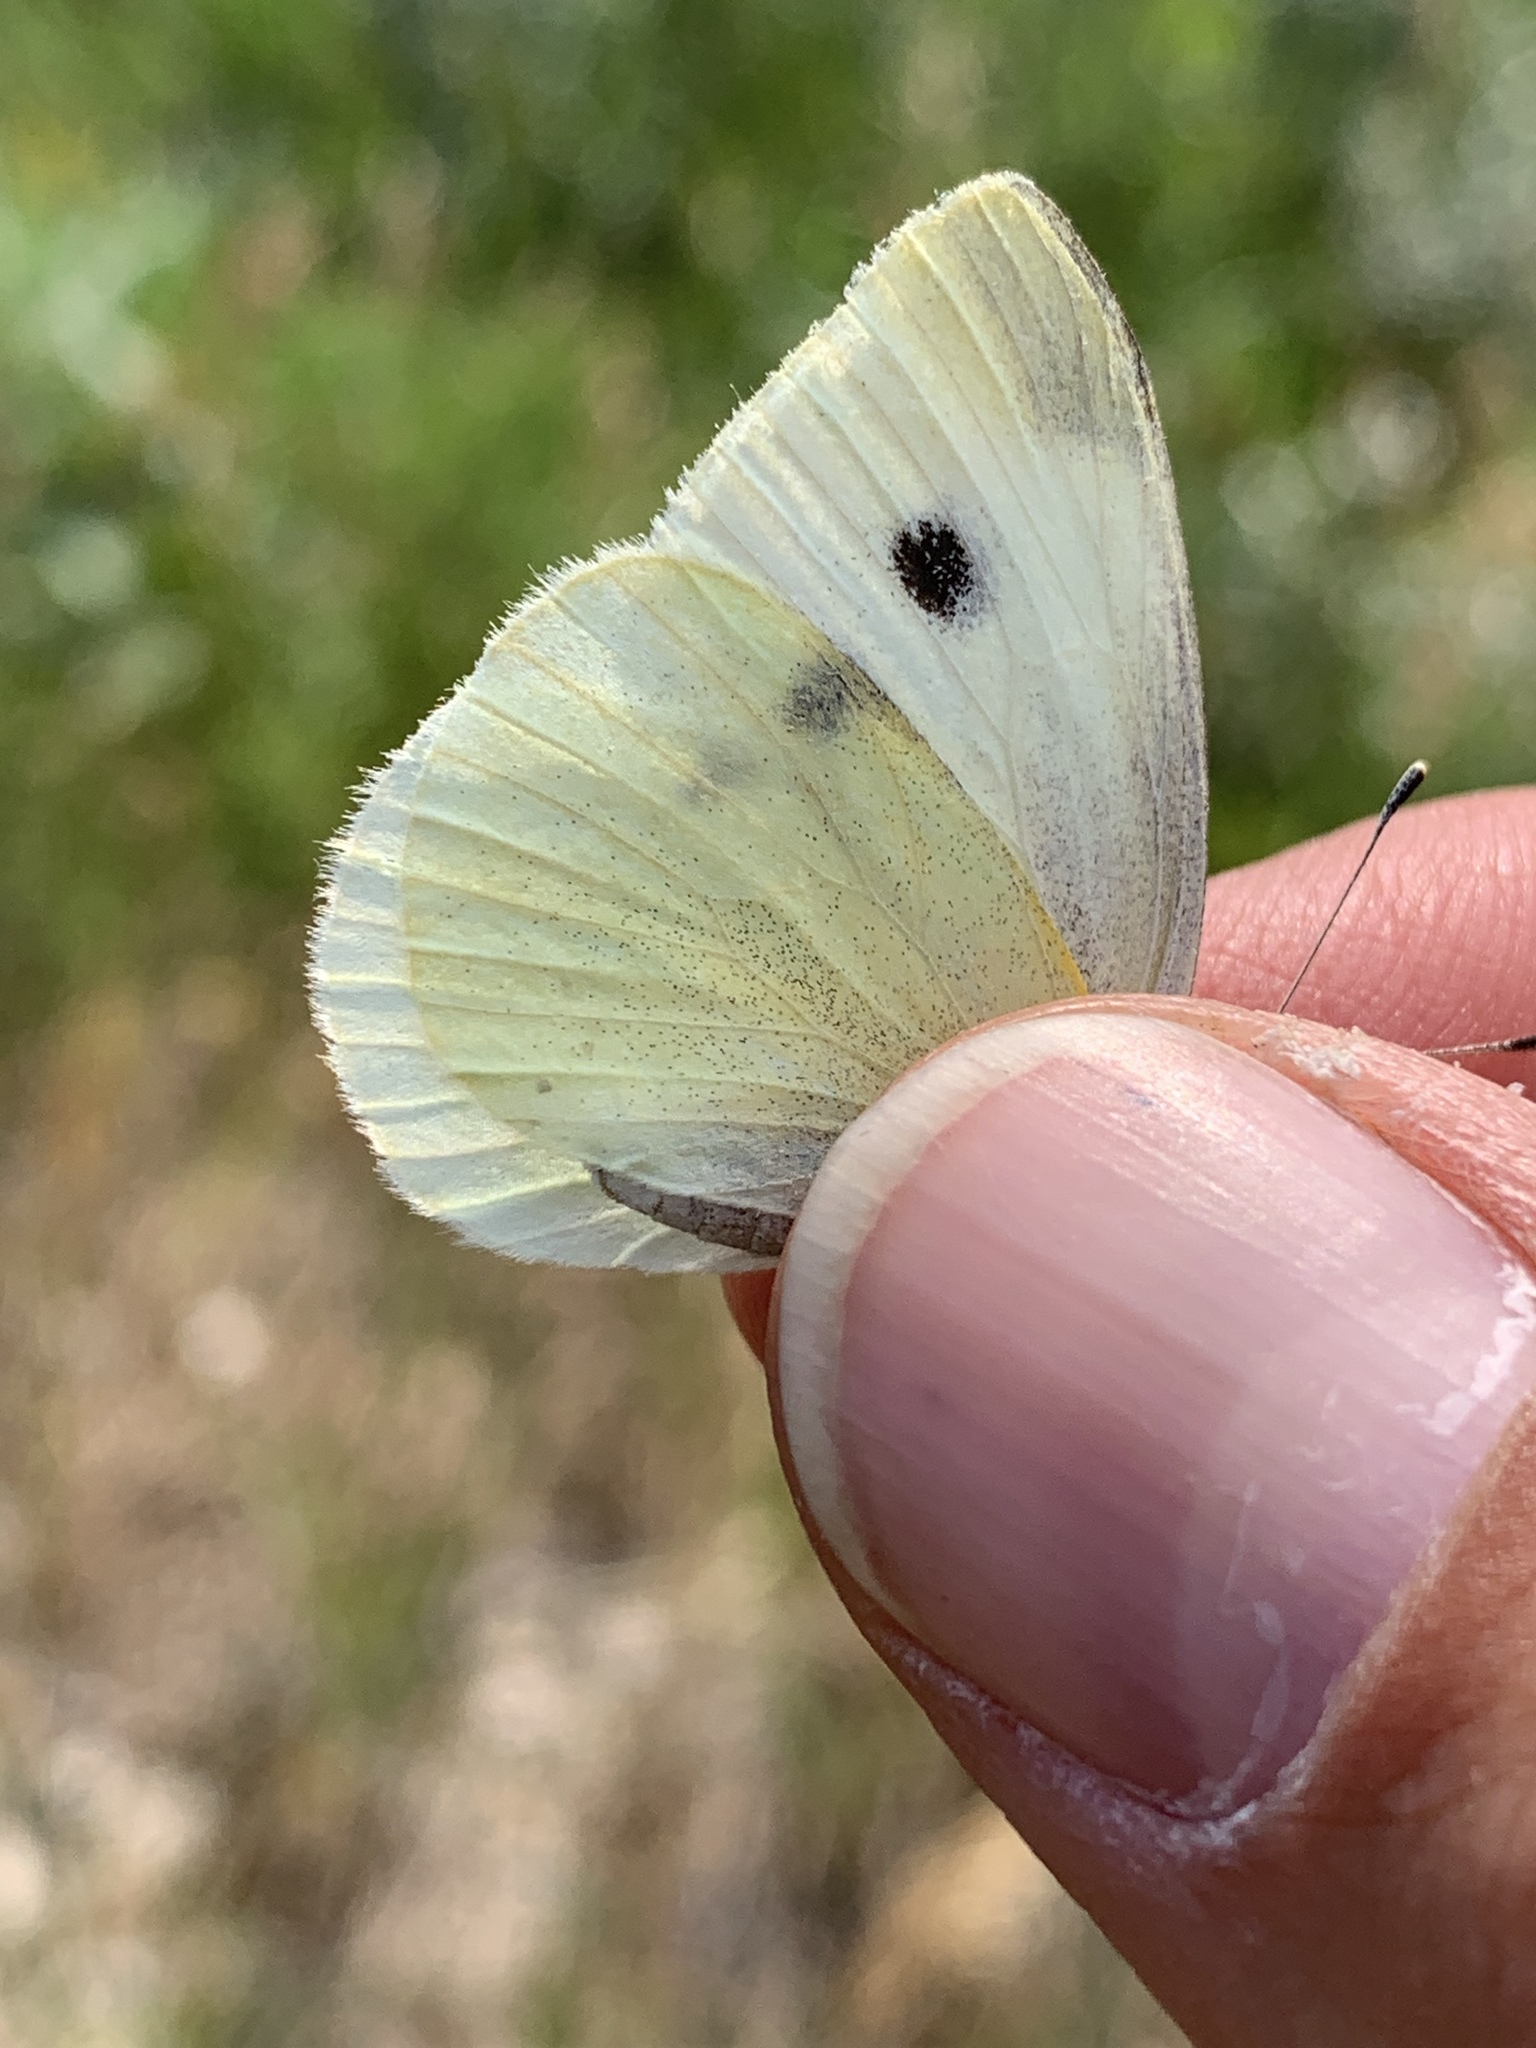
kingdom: Animalia
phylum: Arthropoda
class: Insecta
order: Lepidoptera
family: Pieridae
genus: Pieris
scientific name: Pieris rapae
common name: Small white
